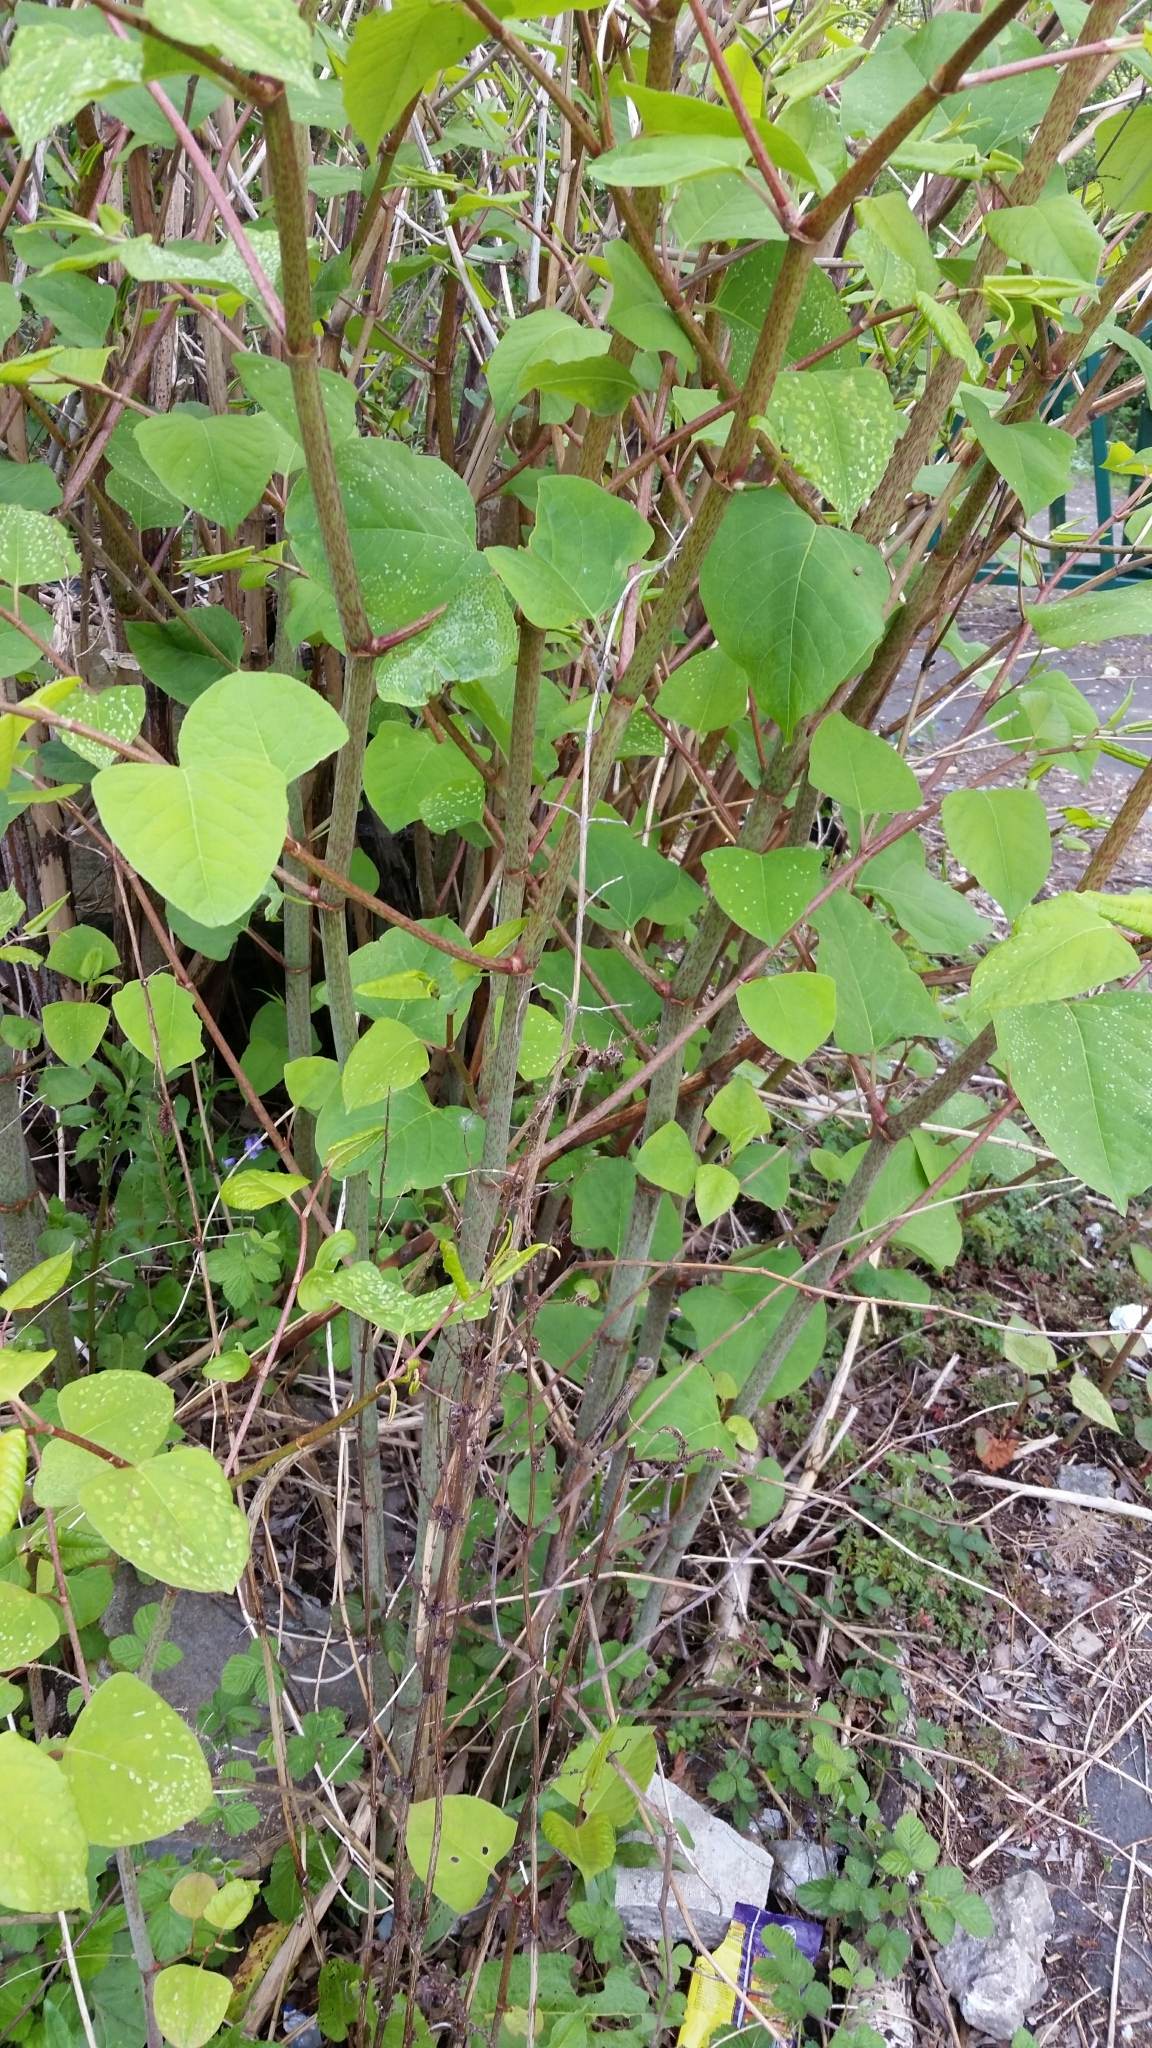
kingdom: Plantae
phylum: Tracheophyta
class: Magnoliopsida
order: Caryophyllales
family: Polygonaceae
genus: Reynoutria
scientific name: Reynoutria japonica
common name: Japanese knotweed
